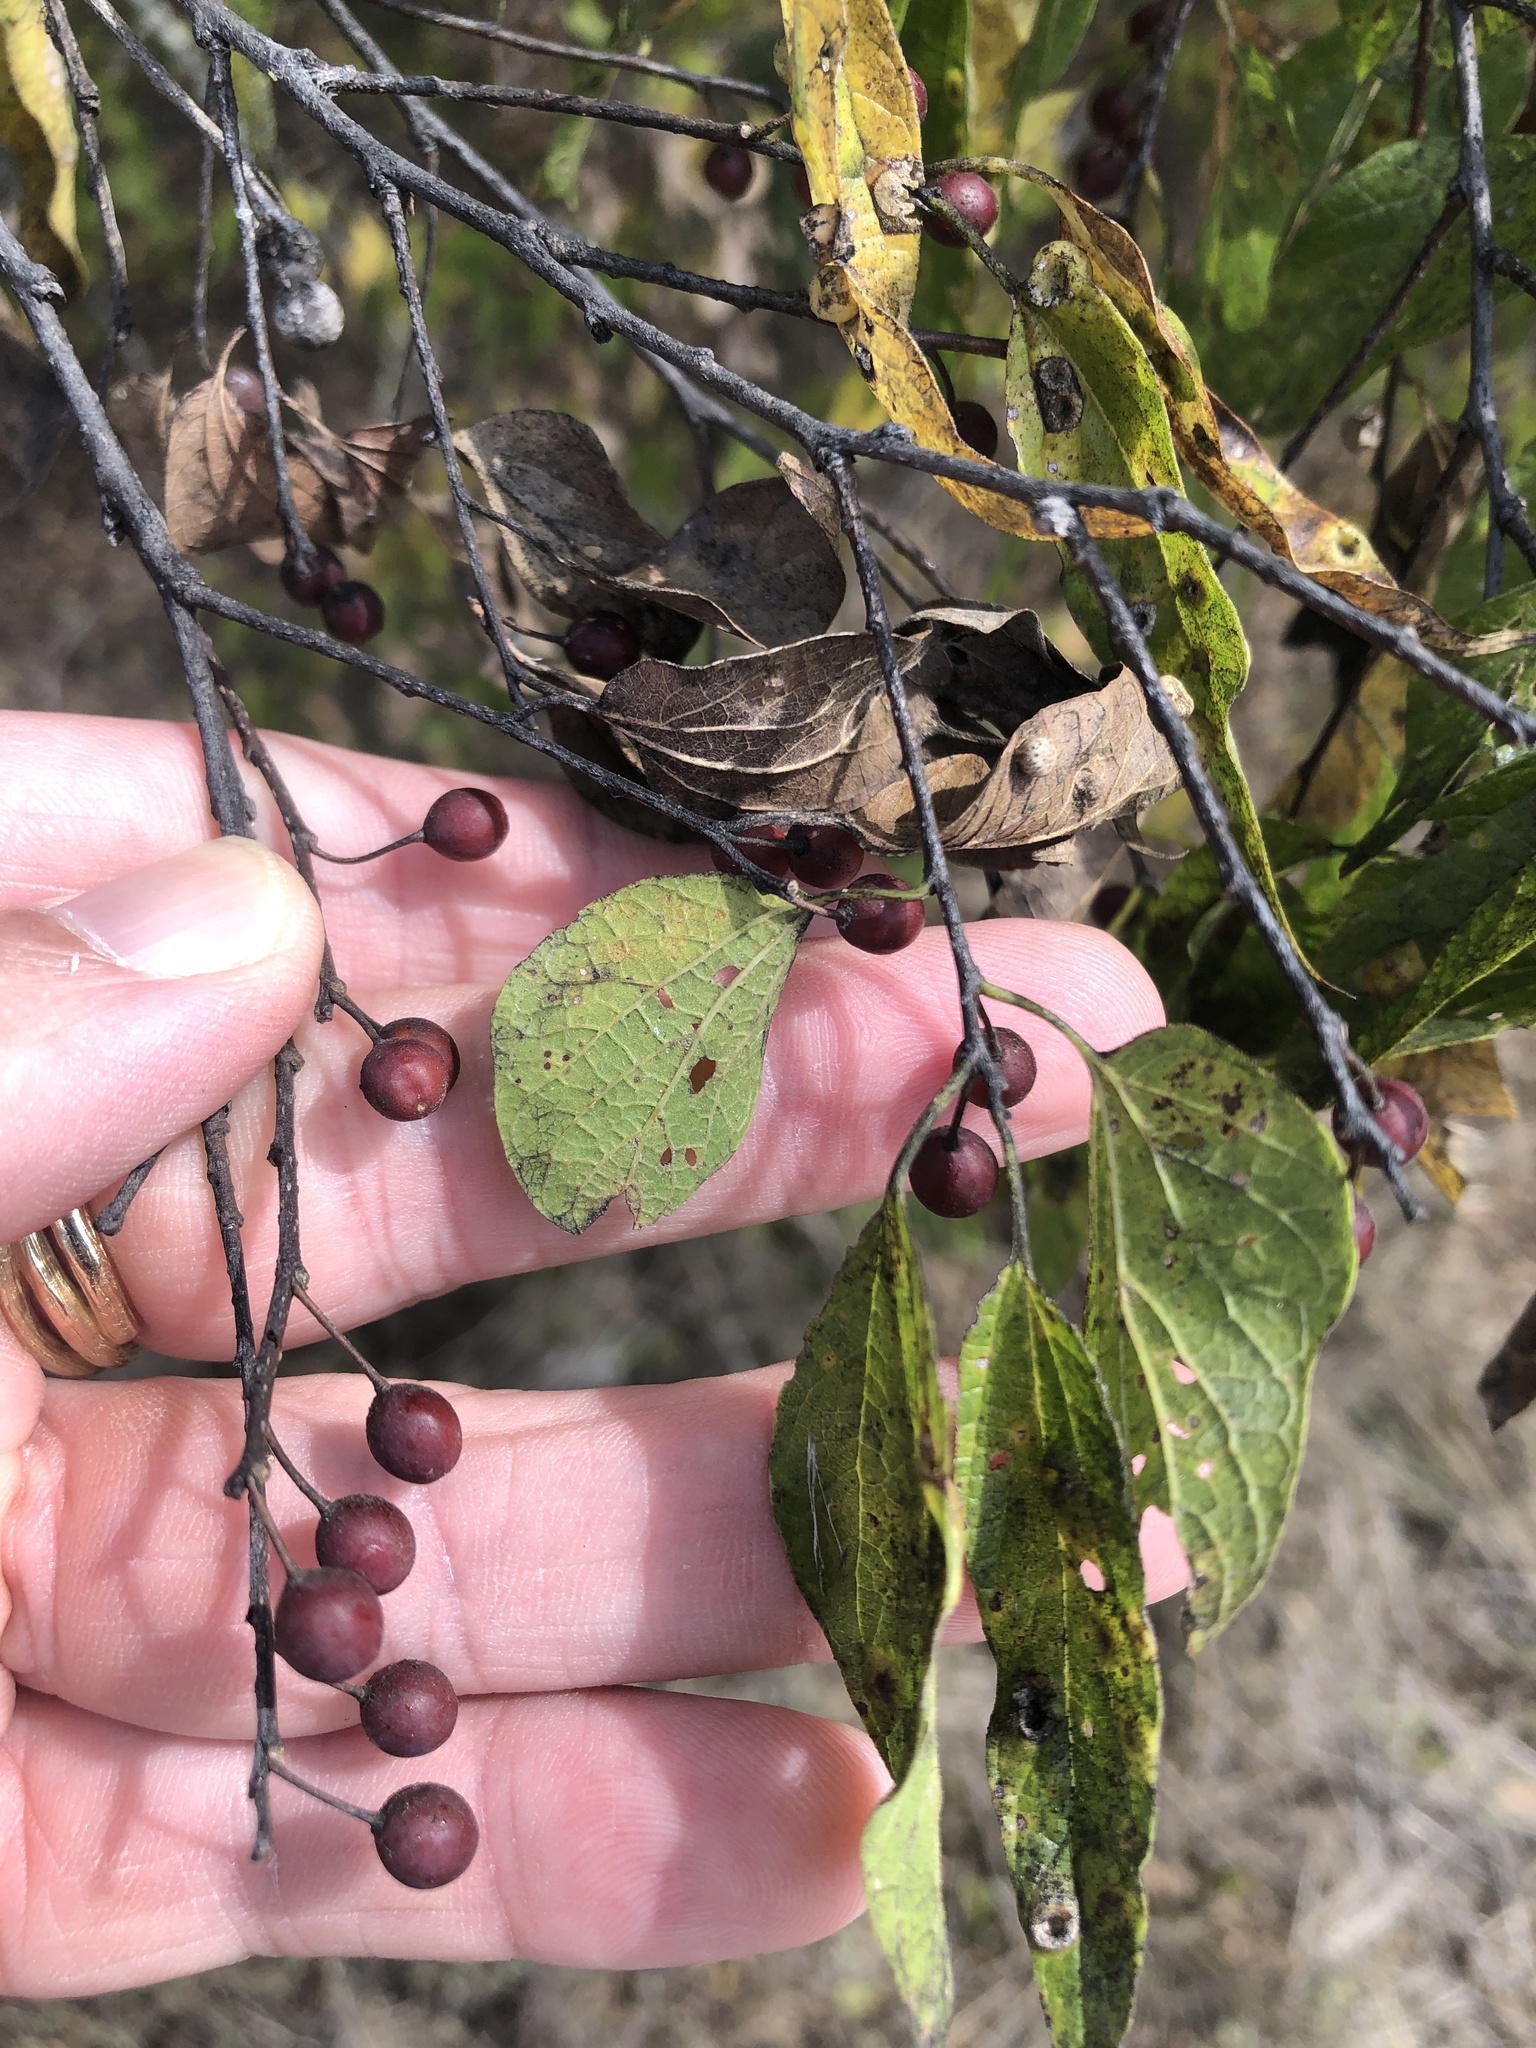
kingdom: Plantae
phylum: Tracheophyta
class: Magnoliopsida
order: Rosales
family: Cannabaceae
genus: Celtis
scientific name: Celtis laevigata
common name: Sugarberry
